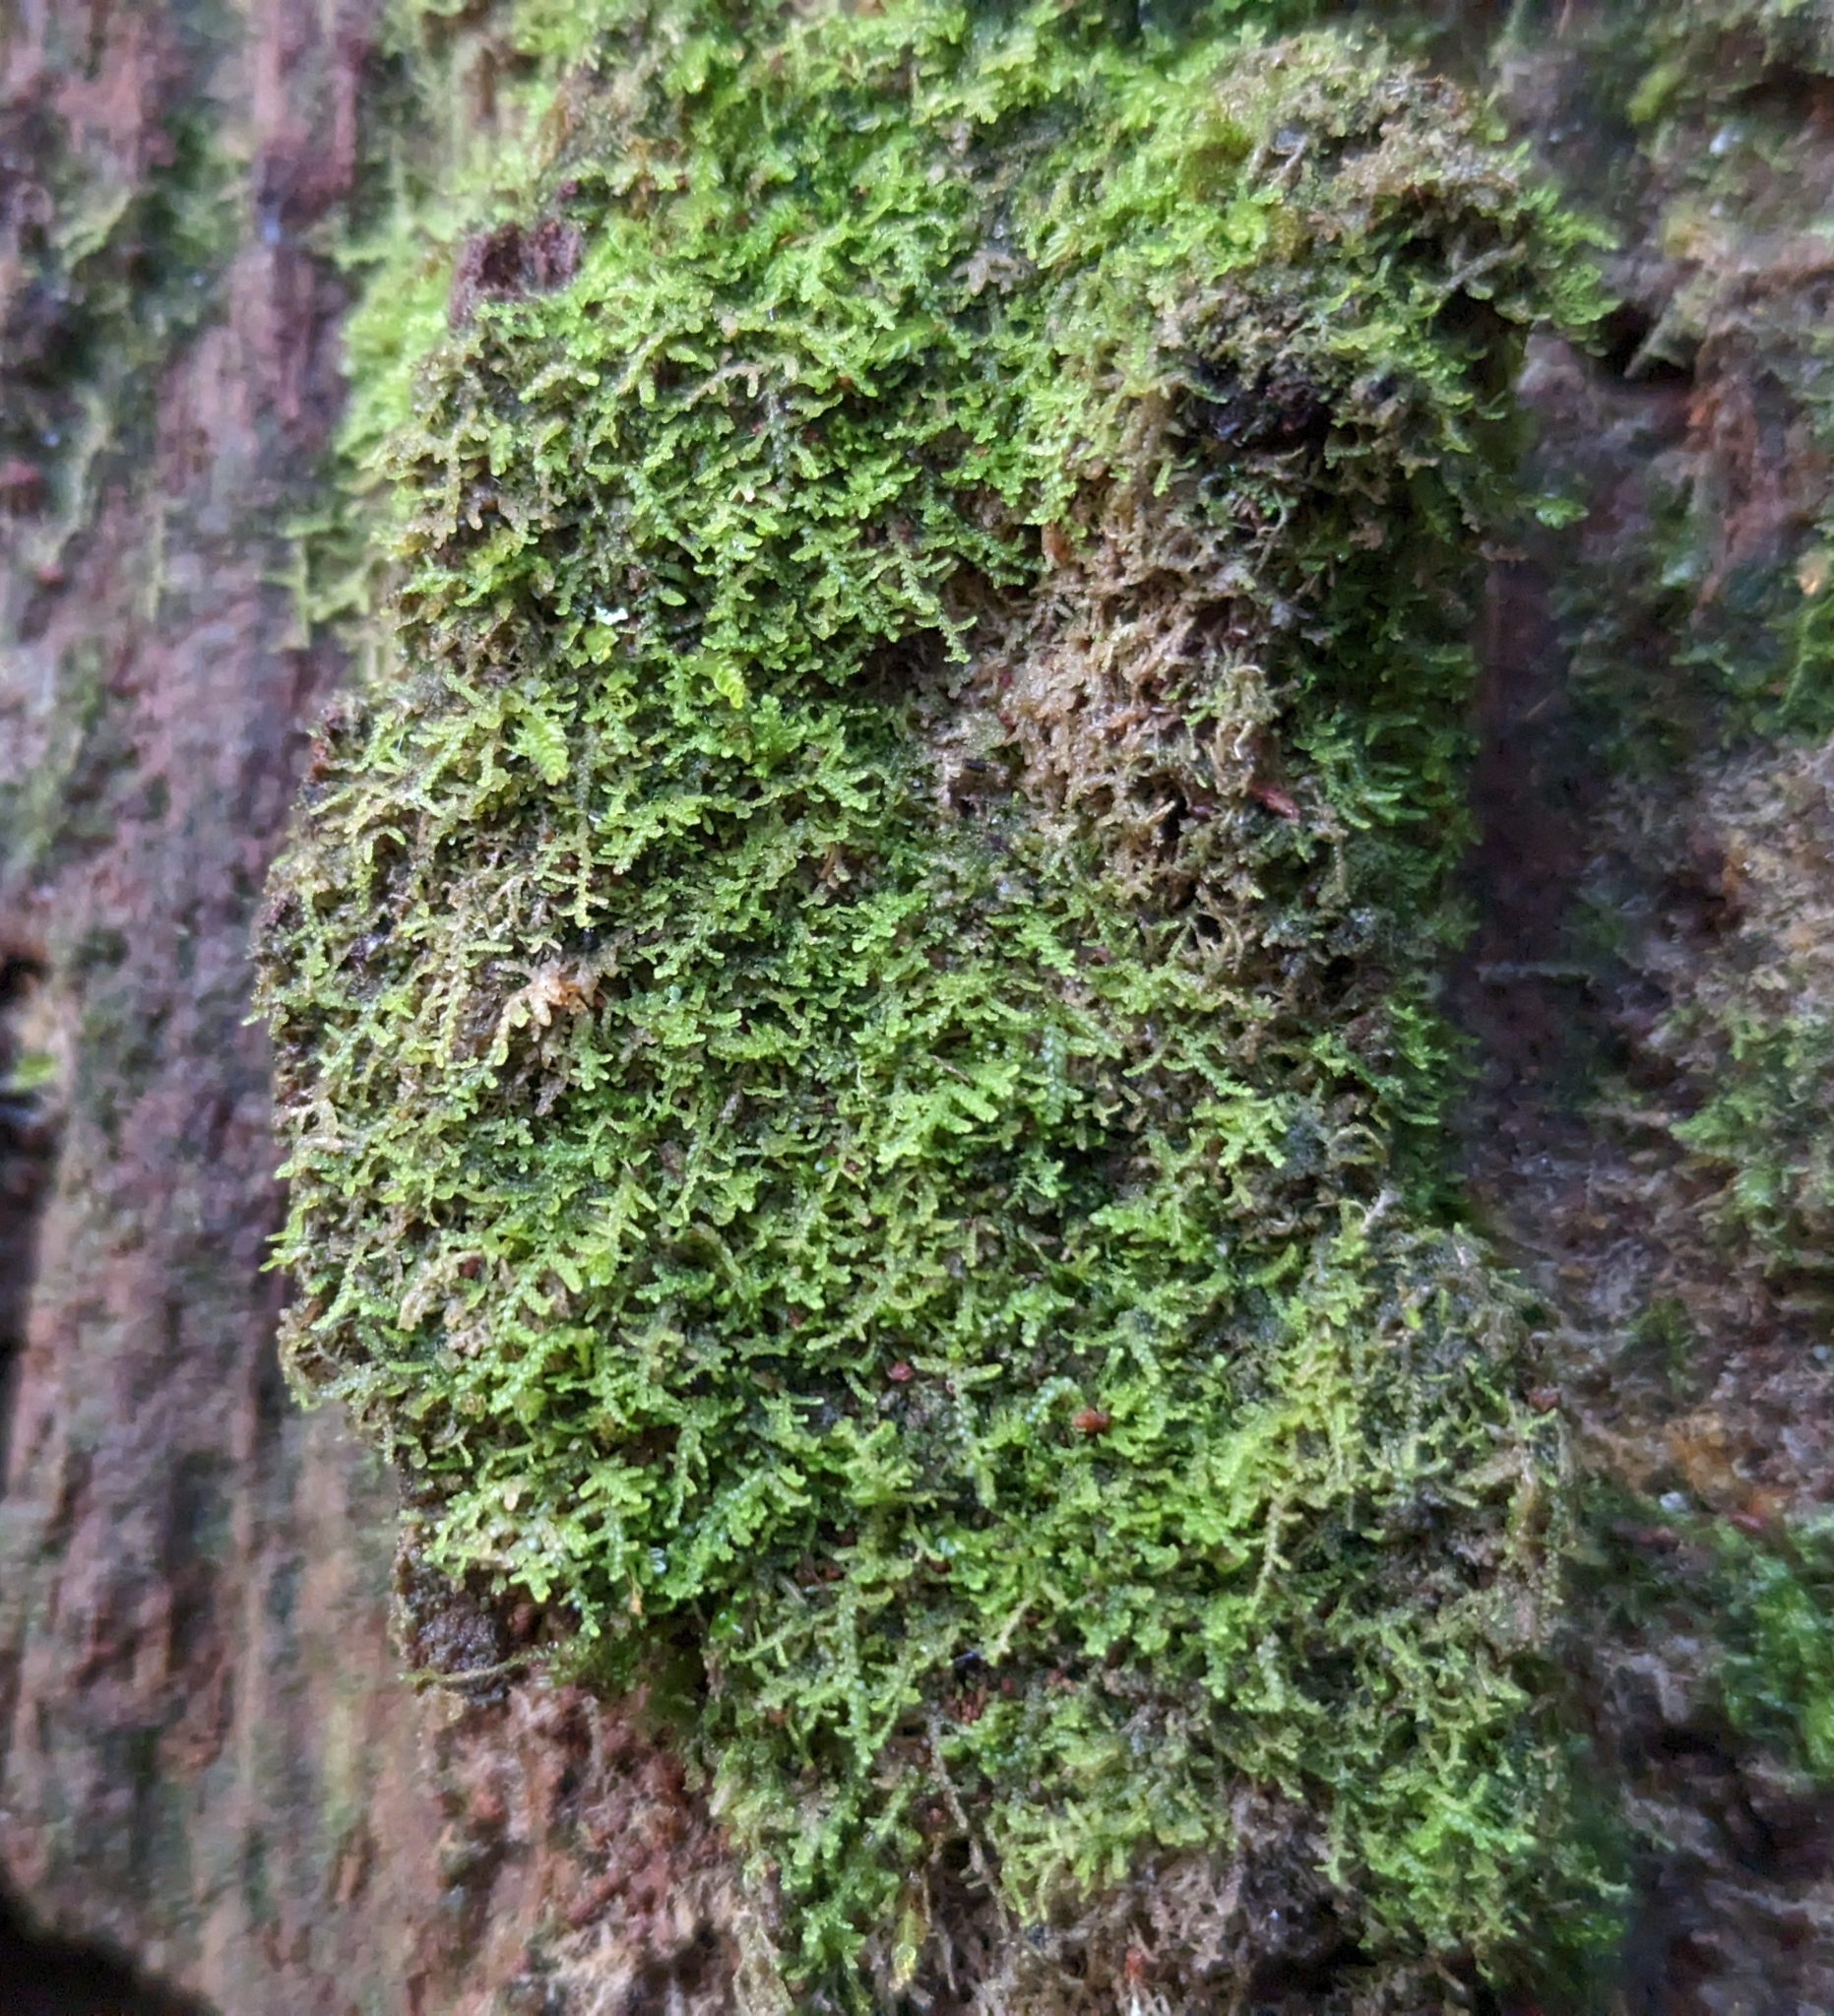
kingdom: Plantae
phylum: Marchantiophyta
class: Jungermanniopsida
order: Jungermanniales
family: Lepidoziaceae
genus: Lepidozia
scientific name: Lepidozia reptans
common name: Creeping fingerwort
